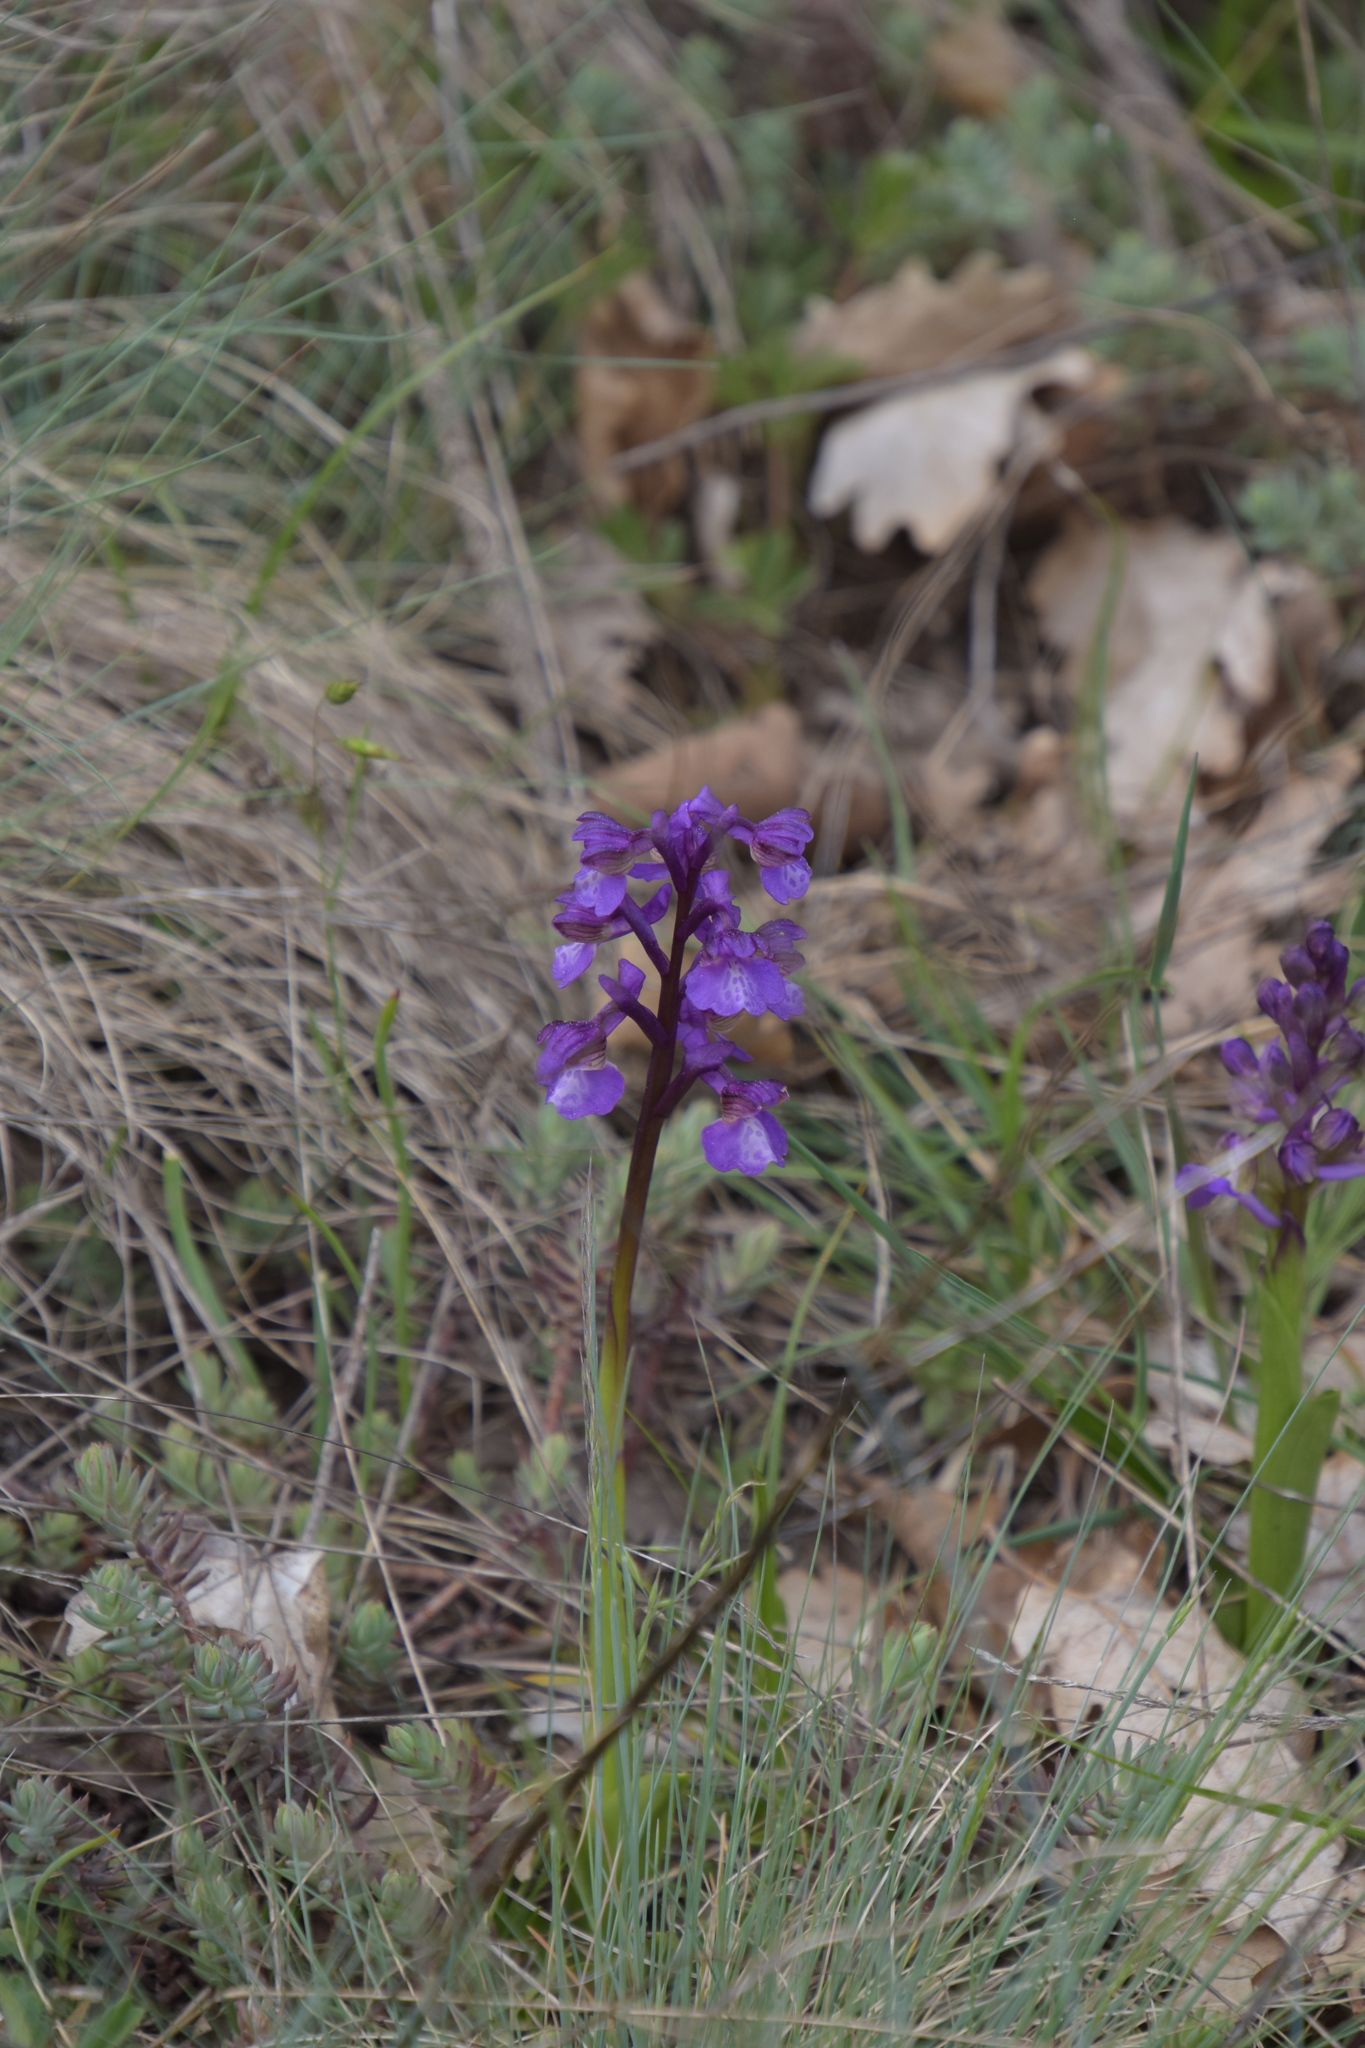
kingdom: Plantae
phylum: Tracheophyta
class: Liliopsida
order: Asparagales
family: Orchidaceae
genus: Anacamptis
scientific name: Anacamptis morio
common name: Green-winged orchid
